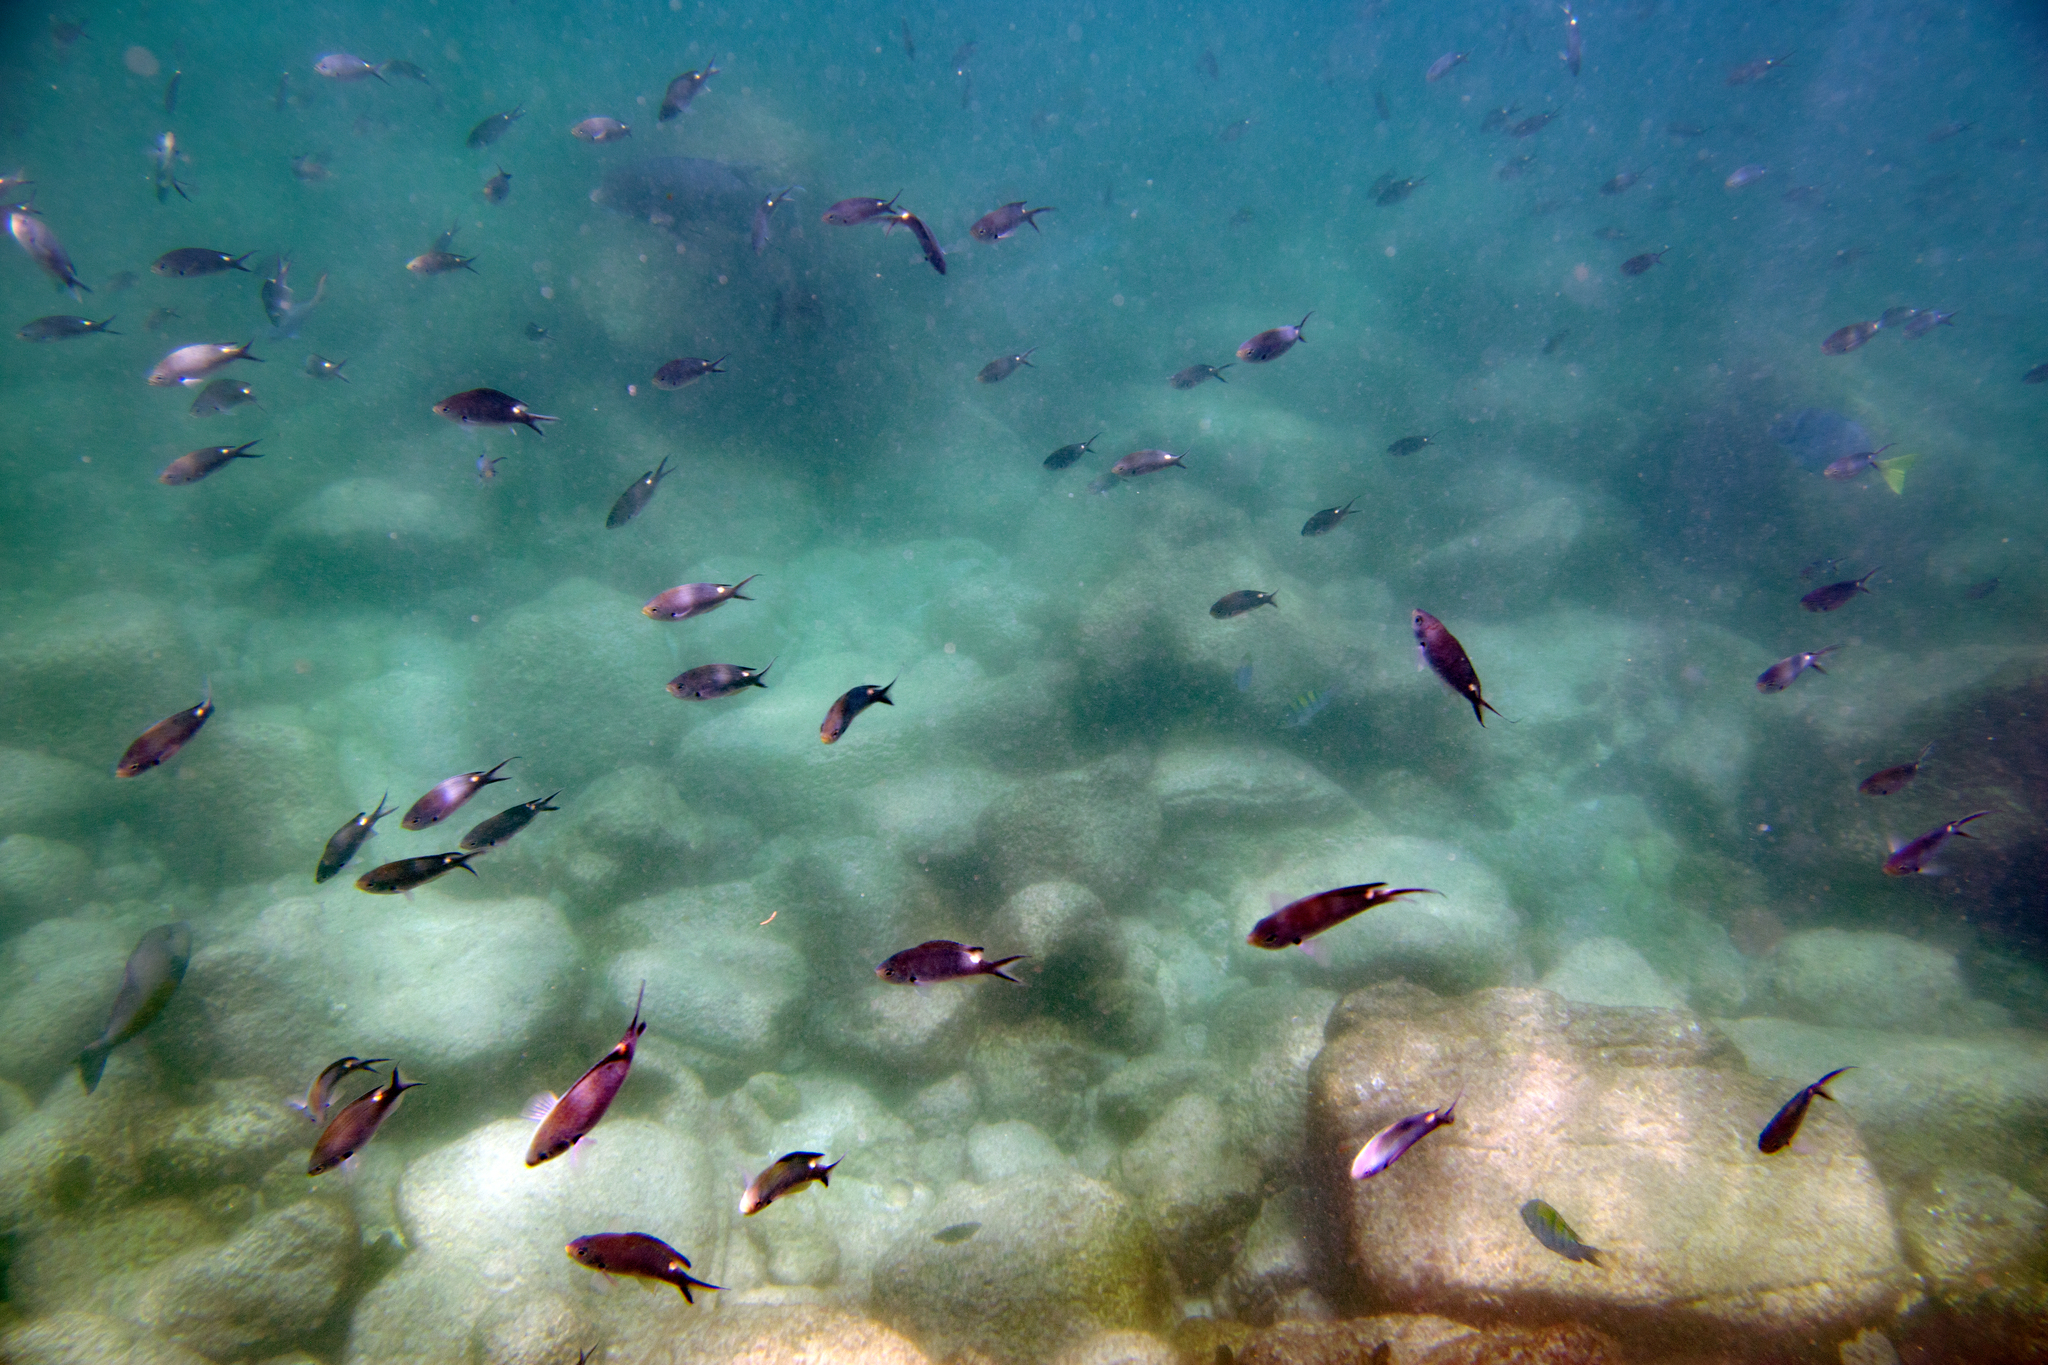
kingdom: Animalia
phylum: Chordata
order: Perciformes
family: Pomacentridae
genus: Chromis
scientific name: Chromis atrilobata
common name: Scissortail damselfish
